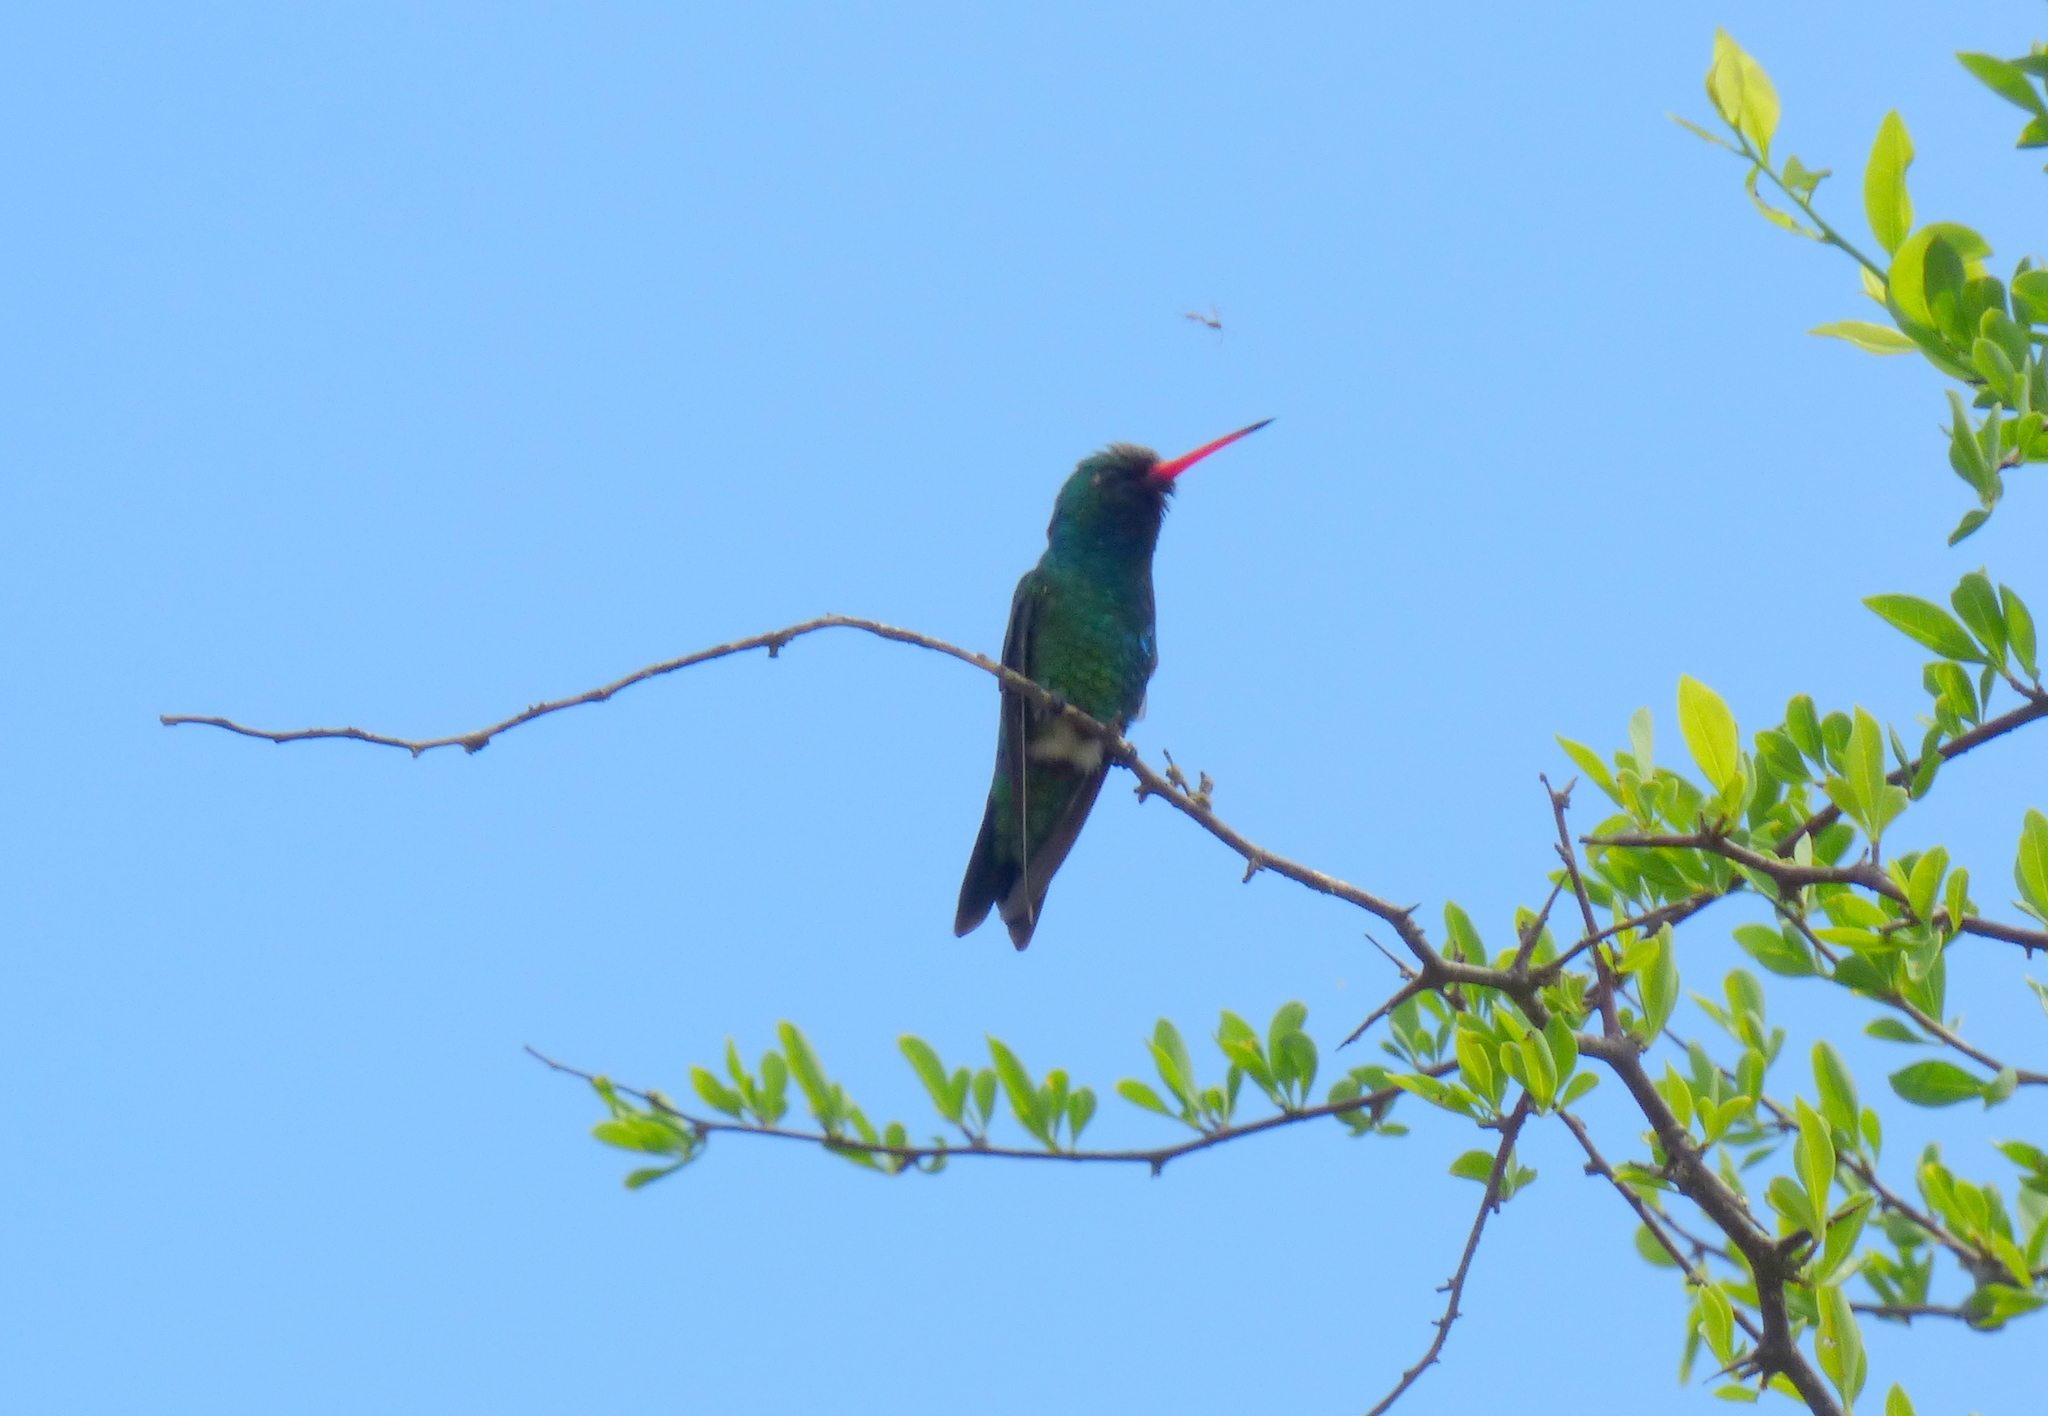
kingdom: Animalia
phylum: Chordata
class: Aves
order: Apodiformes
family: Trochilidae
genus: Chlorostilbon
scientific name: Chlorostilbon lucidus
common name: Glittering-bellied emerald
